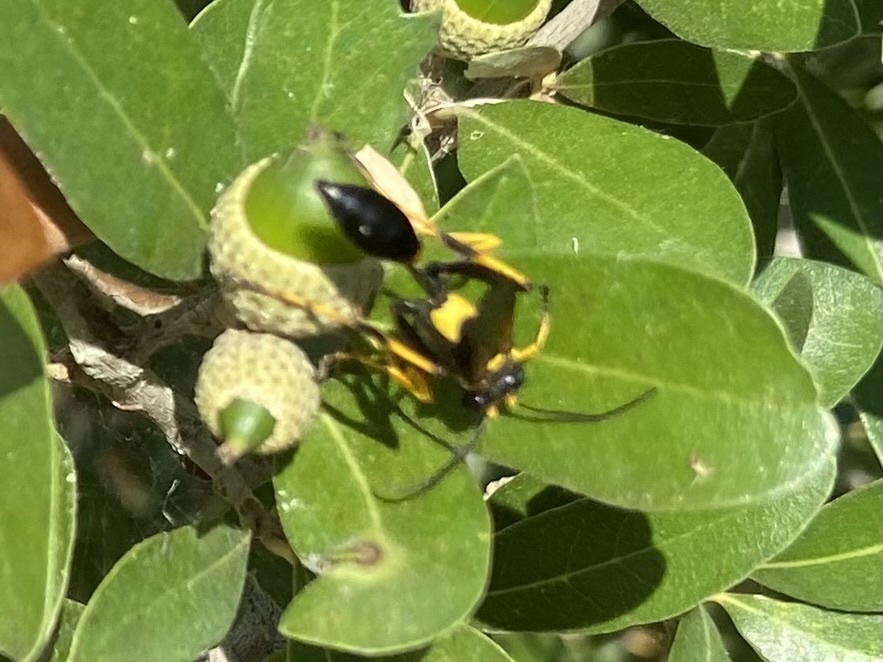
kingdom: Animalia
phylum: Arthropoda
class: Insecta
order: Hymenoptera
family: Sphecidae
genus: Sceliphron
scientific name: Sceliphron caementarium
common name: Mud dauber
